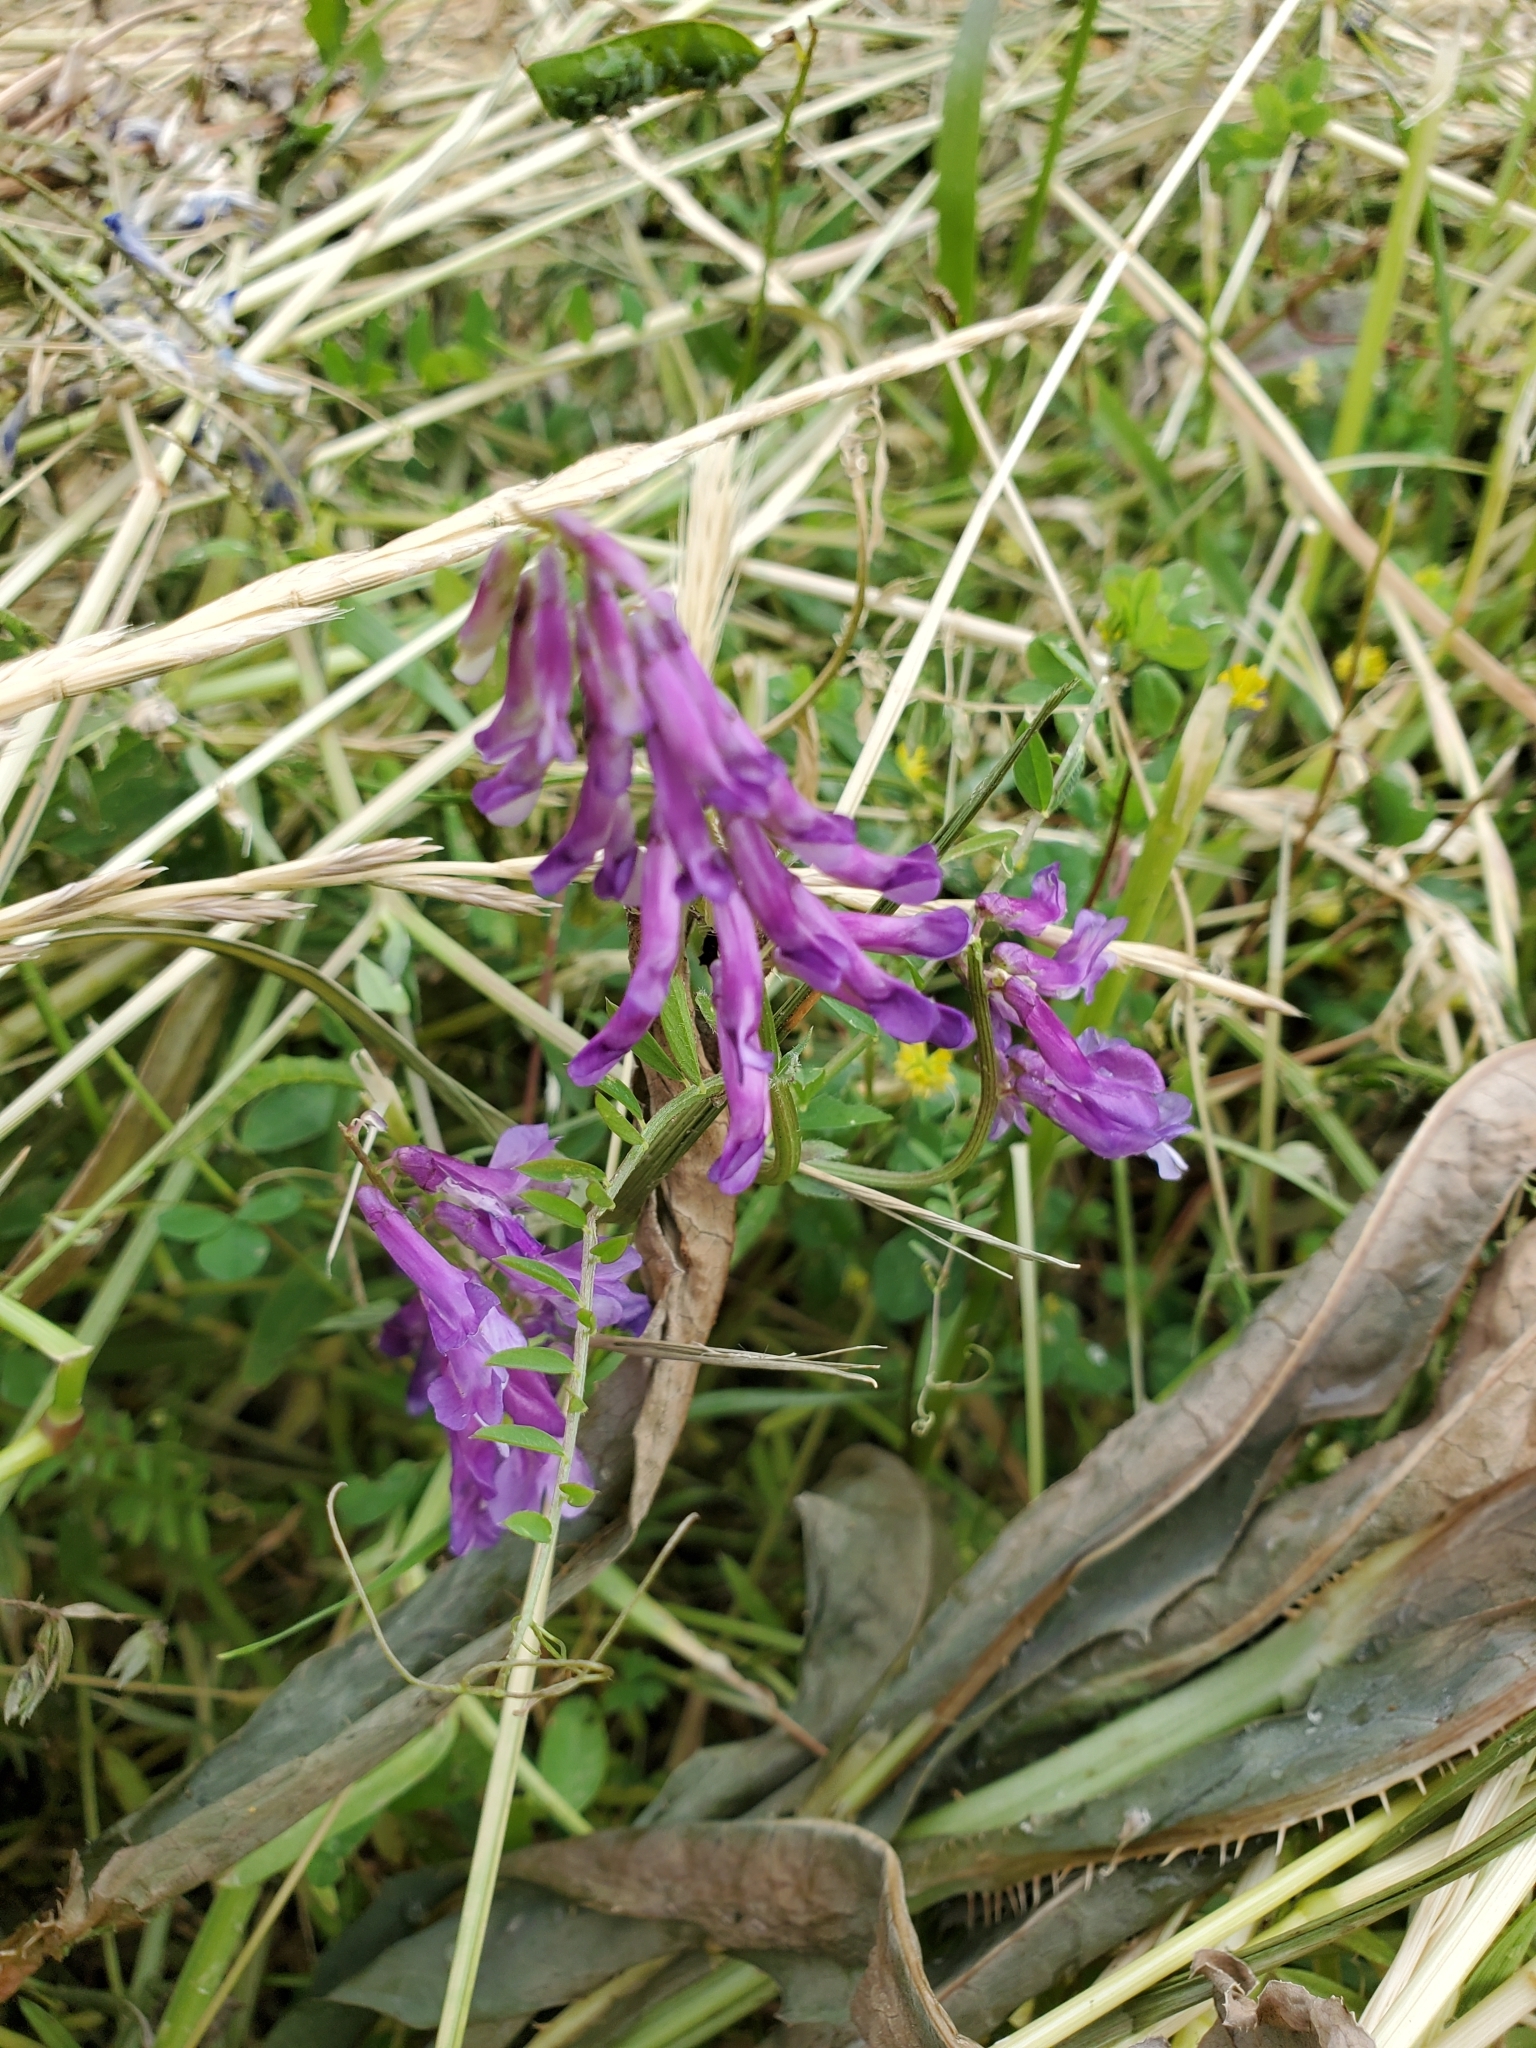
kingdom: Plantae
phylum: Tracheophyta
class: Magnoliopsida
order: Fabales
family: Fabaceae
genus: Vicia
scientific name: Vicia villosa
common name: Fodder vetch
